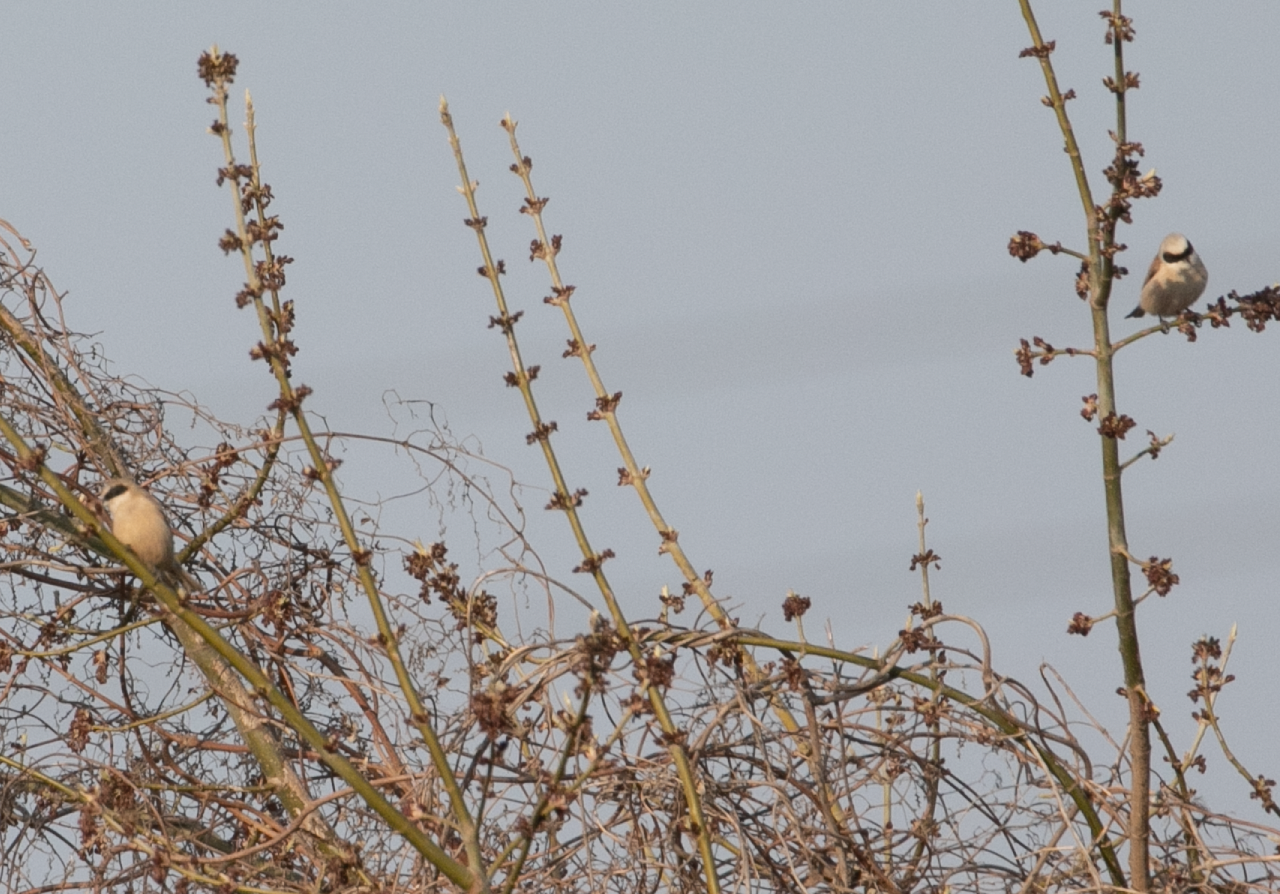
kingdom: Animalia
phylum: Chordata
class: Aves
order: Passeriformes
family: Remizidae
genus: Remiz
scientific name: Remiz pendulinus
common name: Eurasian penduline tit
